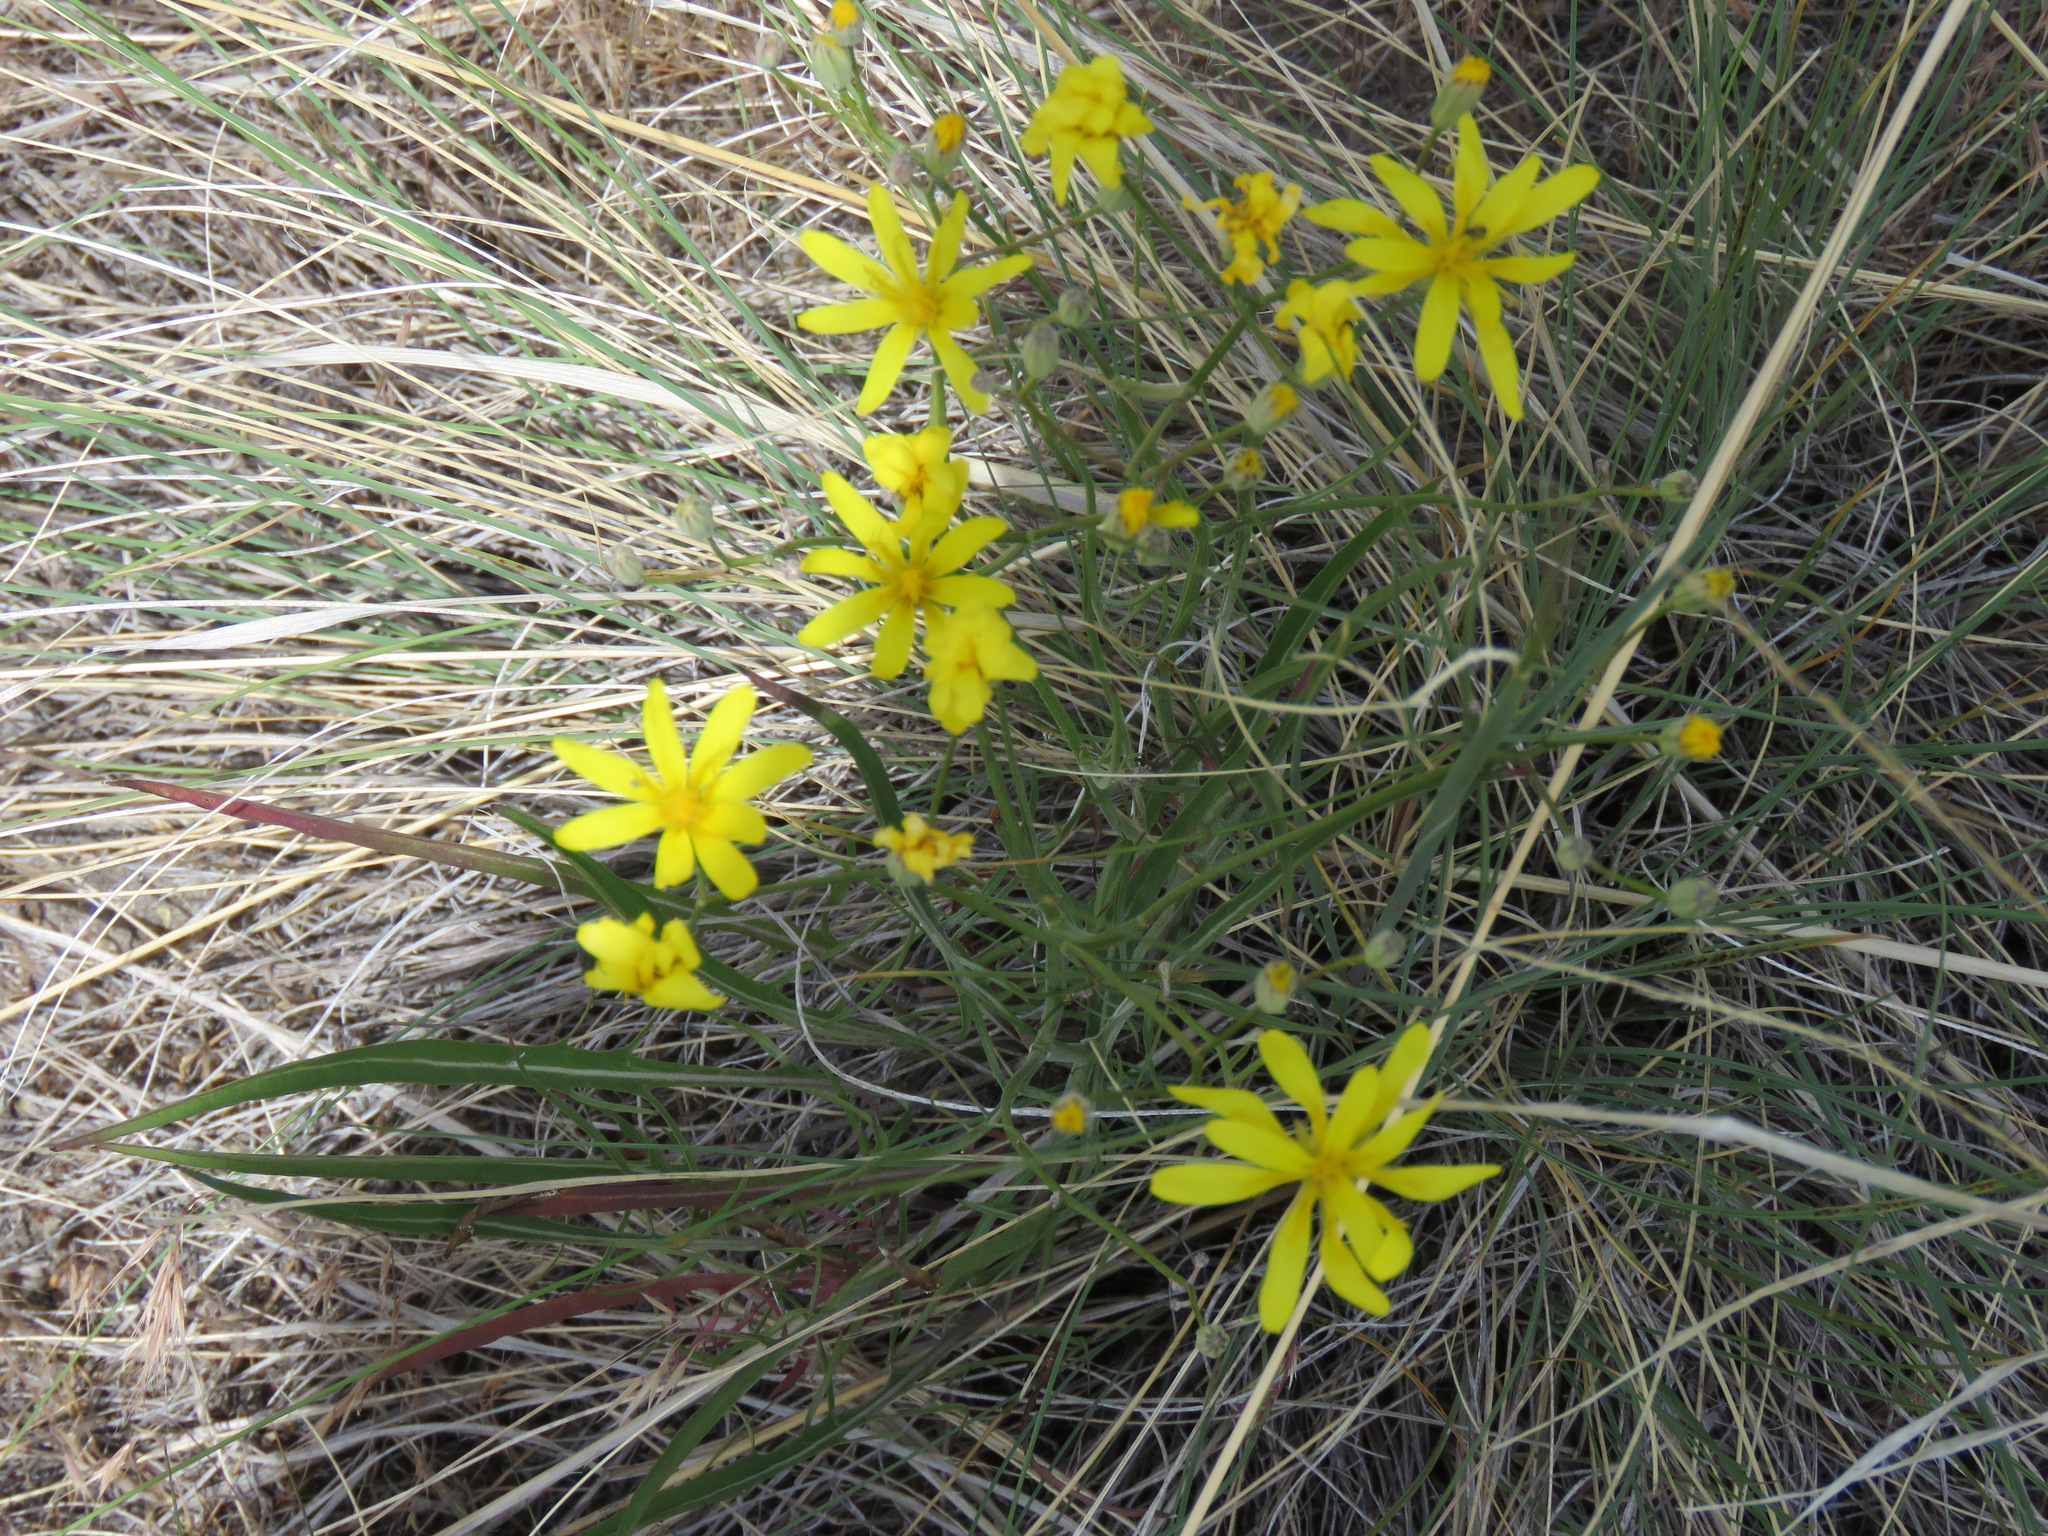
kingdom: Plantae
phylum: Tracheophyta
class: Magnoliopsida
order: Asterales
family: Asteraceae
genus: Crepis
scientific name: Crepis atribarba
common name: Dark hawk's-beard
